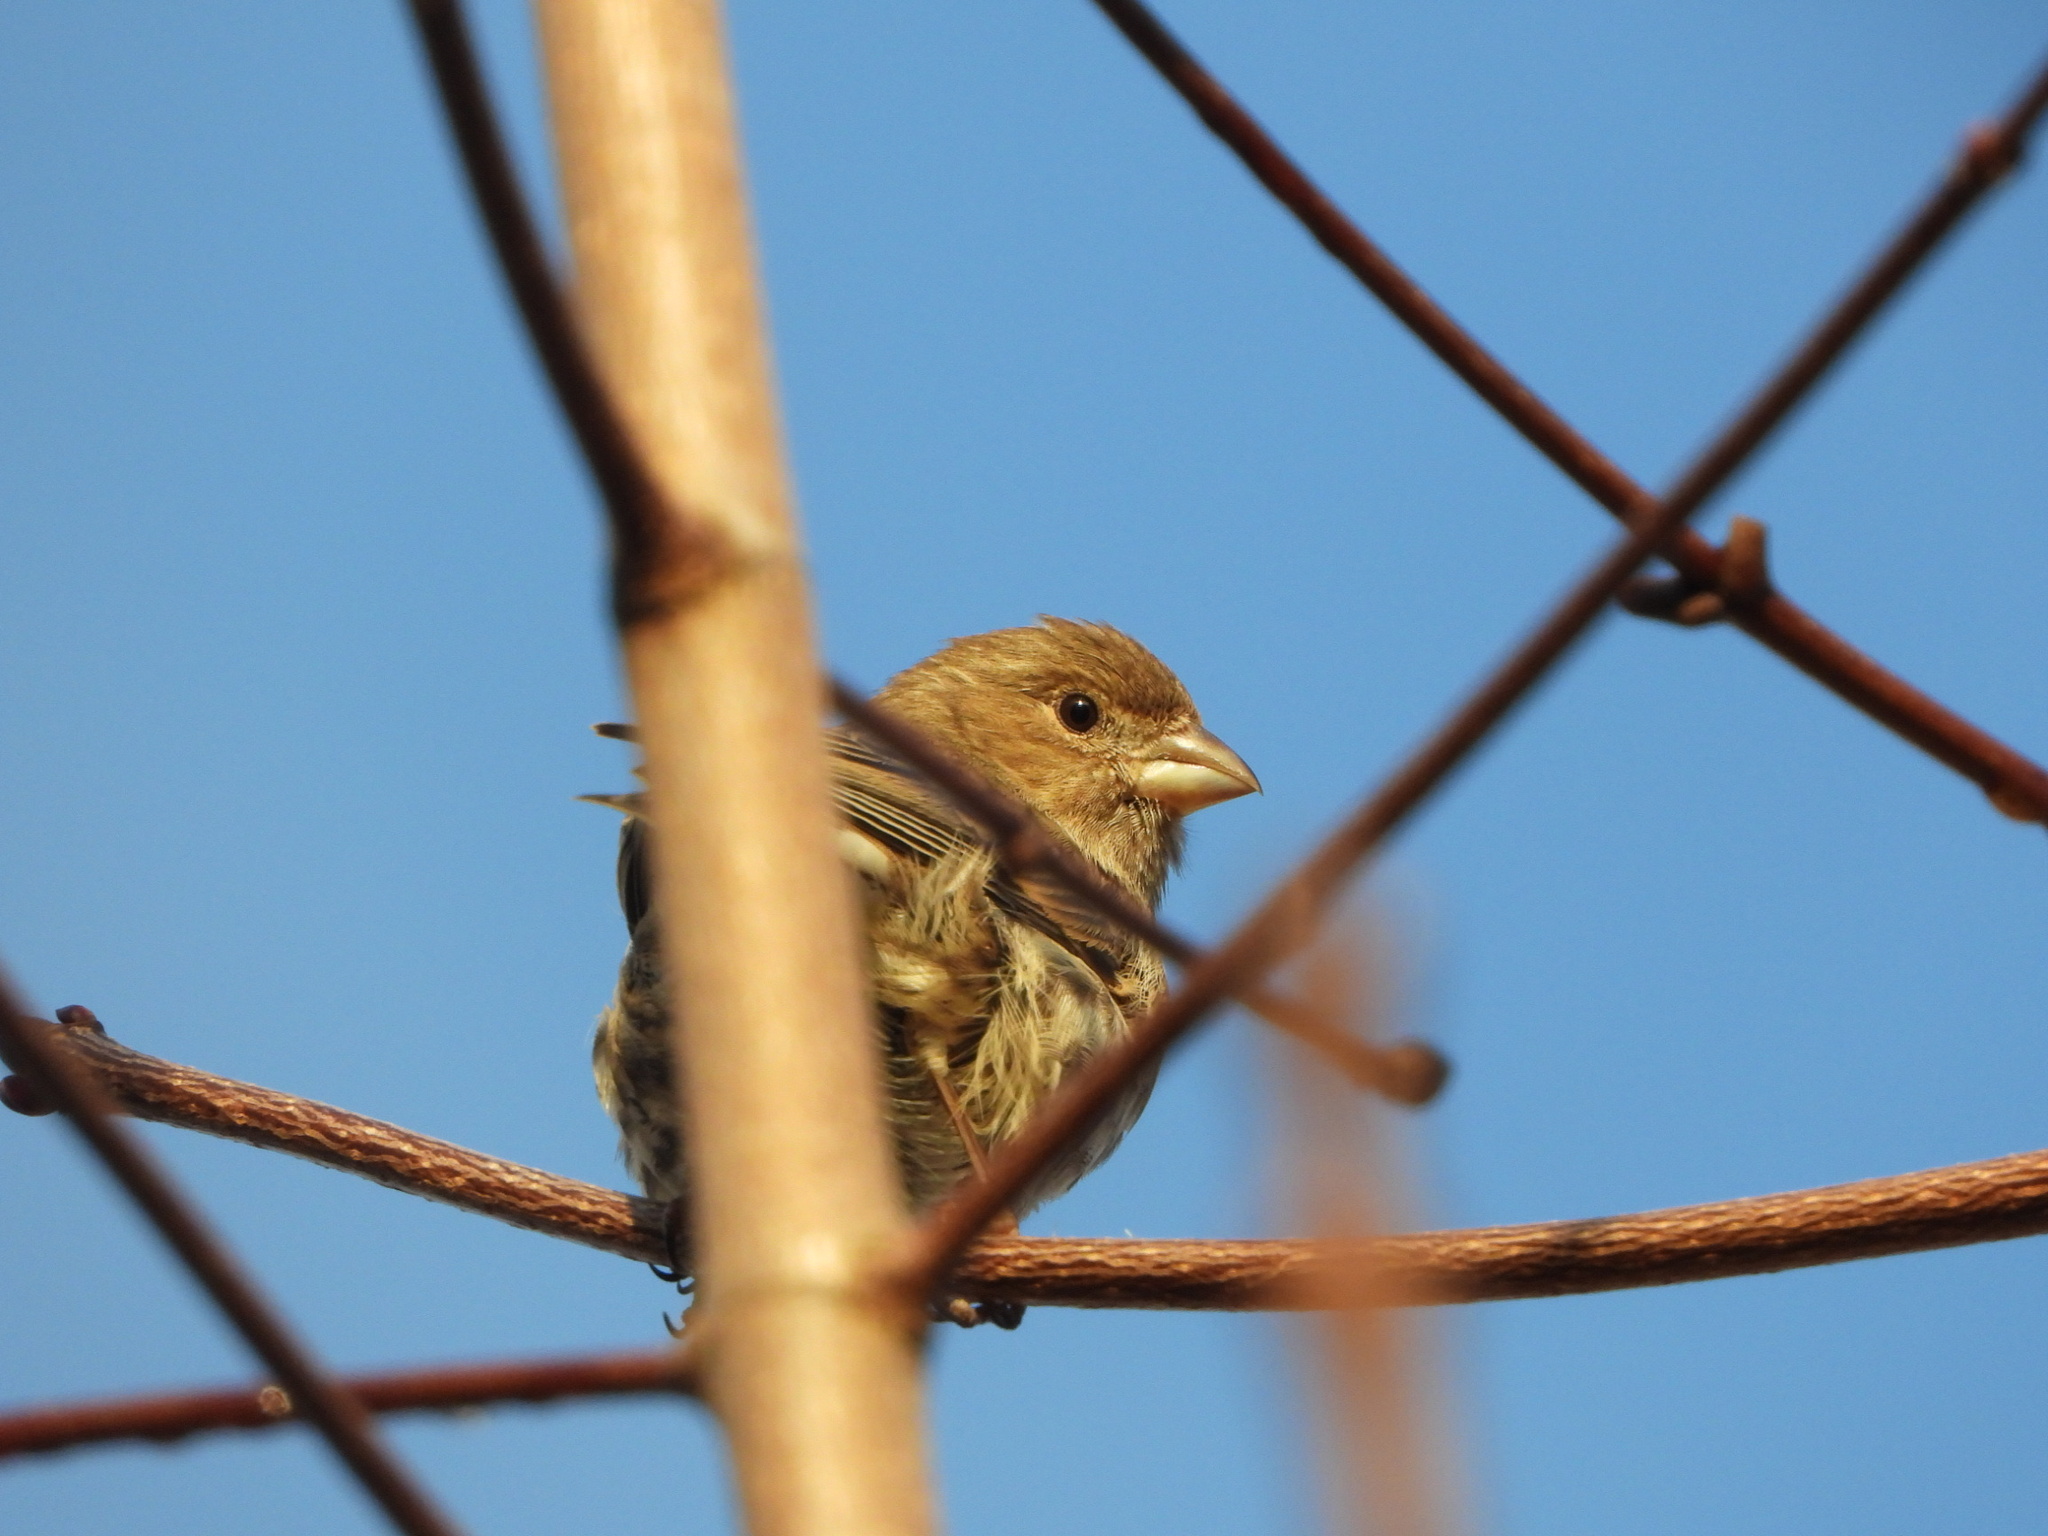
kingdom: Animalia
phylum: Chordata
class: Aves
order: Passeriformes
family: Fringillidae
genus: Haemorhous
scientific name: Haemorhous mexicanus
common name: House finch
